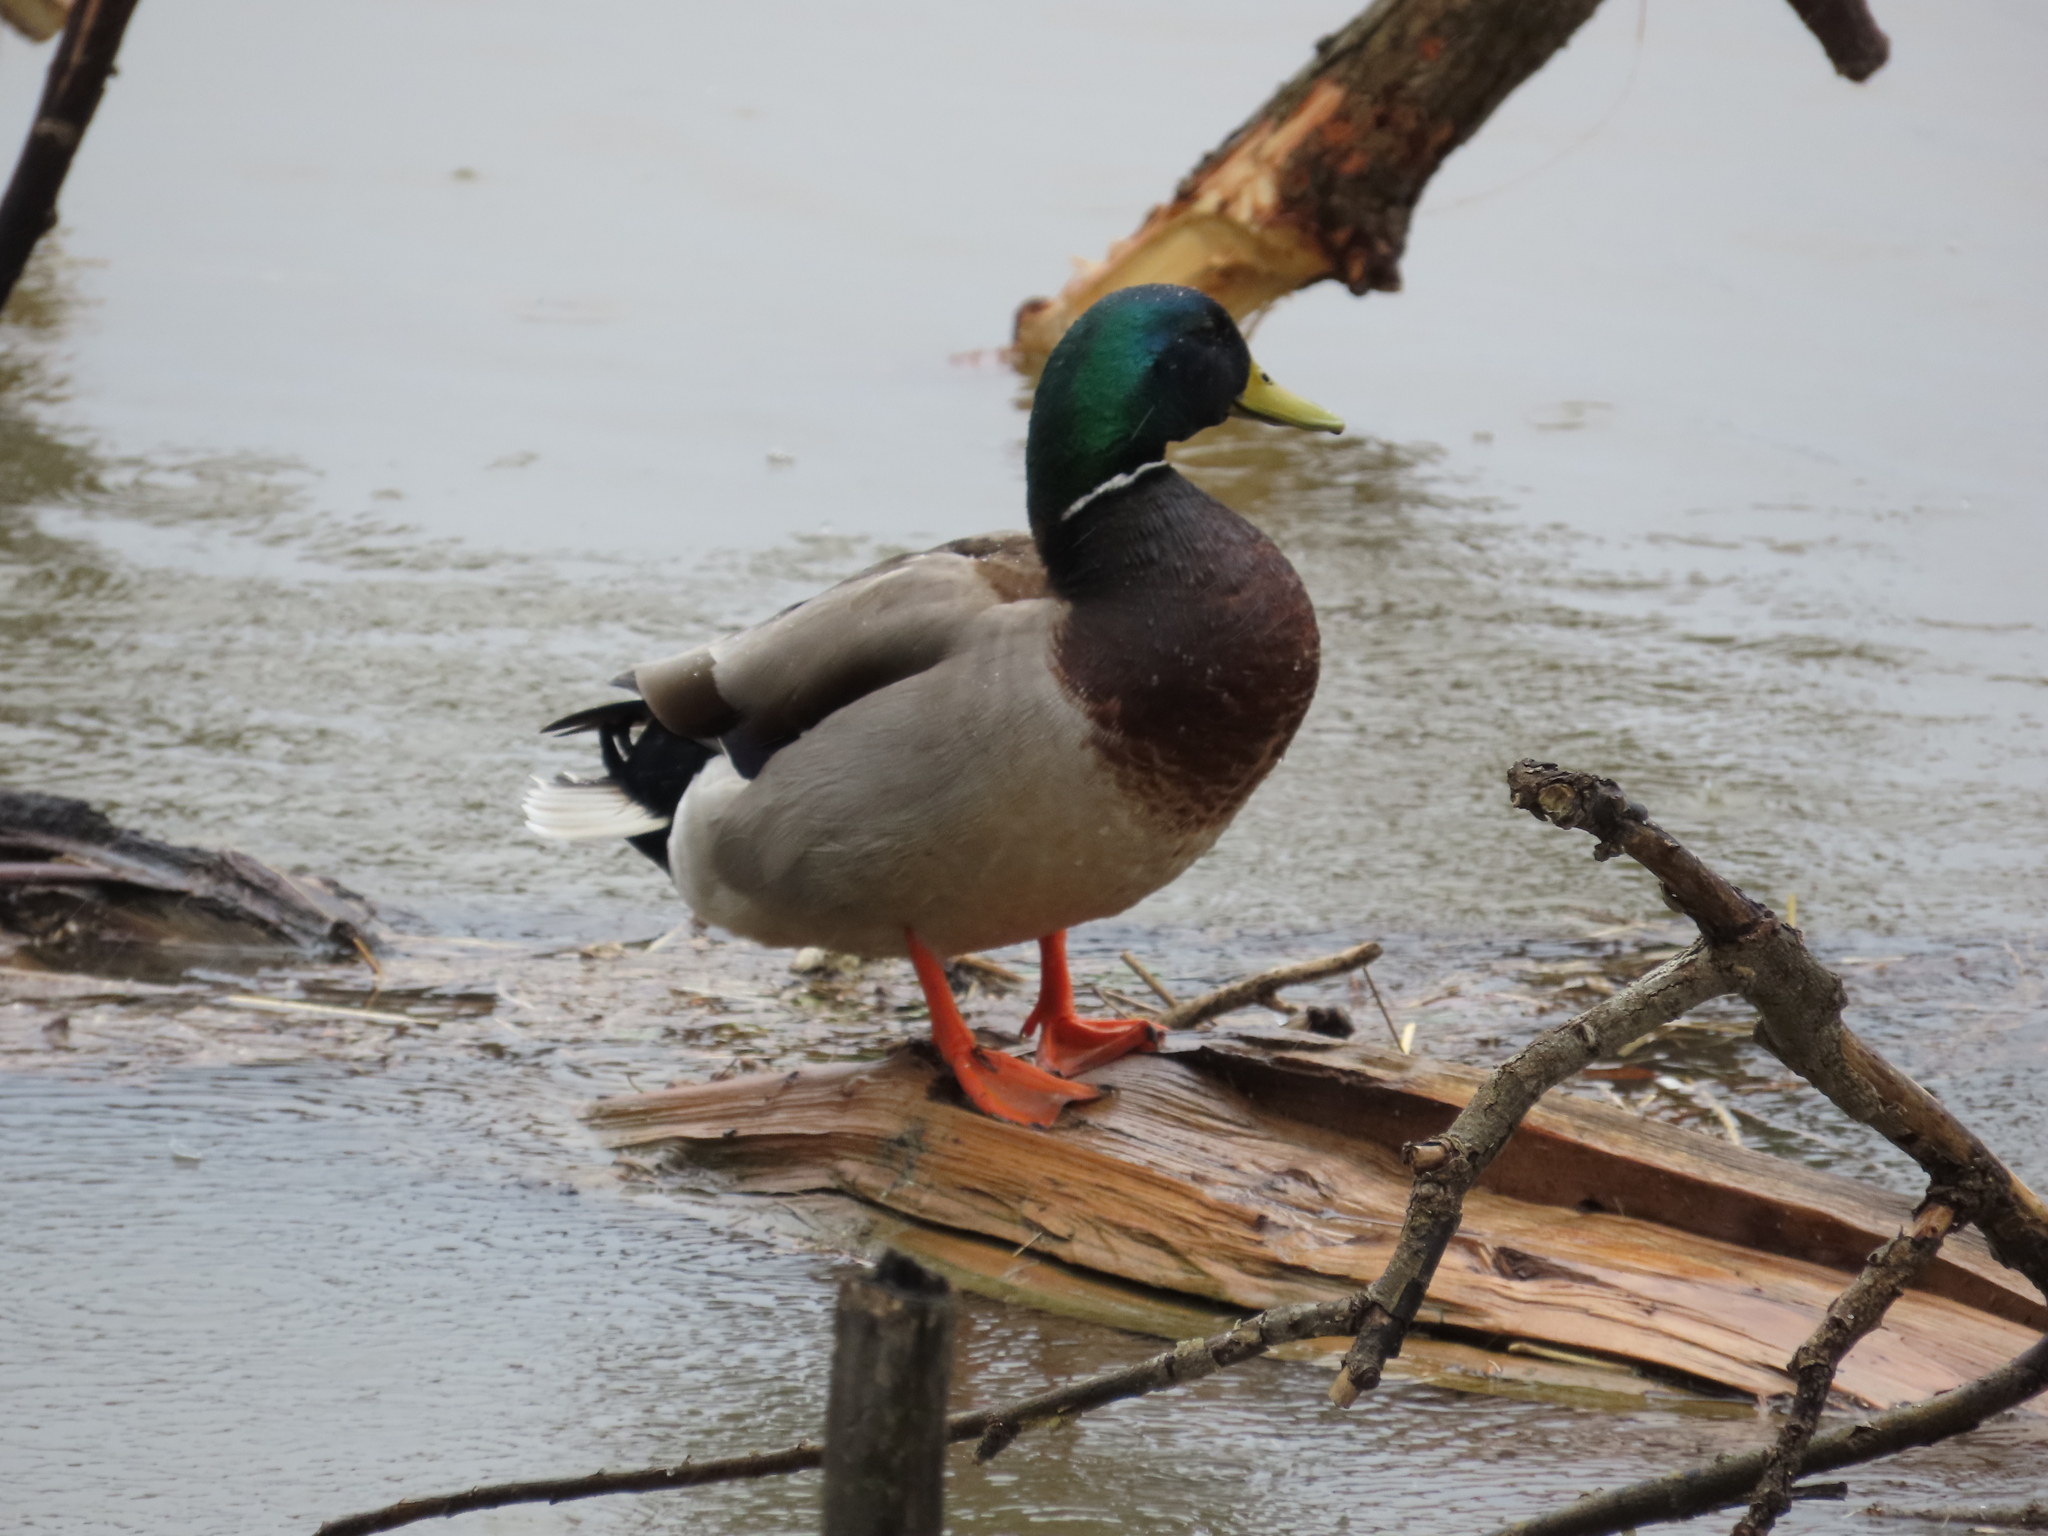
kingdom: Animalia
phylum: Chordata
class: Aves
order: Anseriformes
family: Anatidae
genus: Anas
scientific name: Anas platyrhynchos
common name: Mallard
